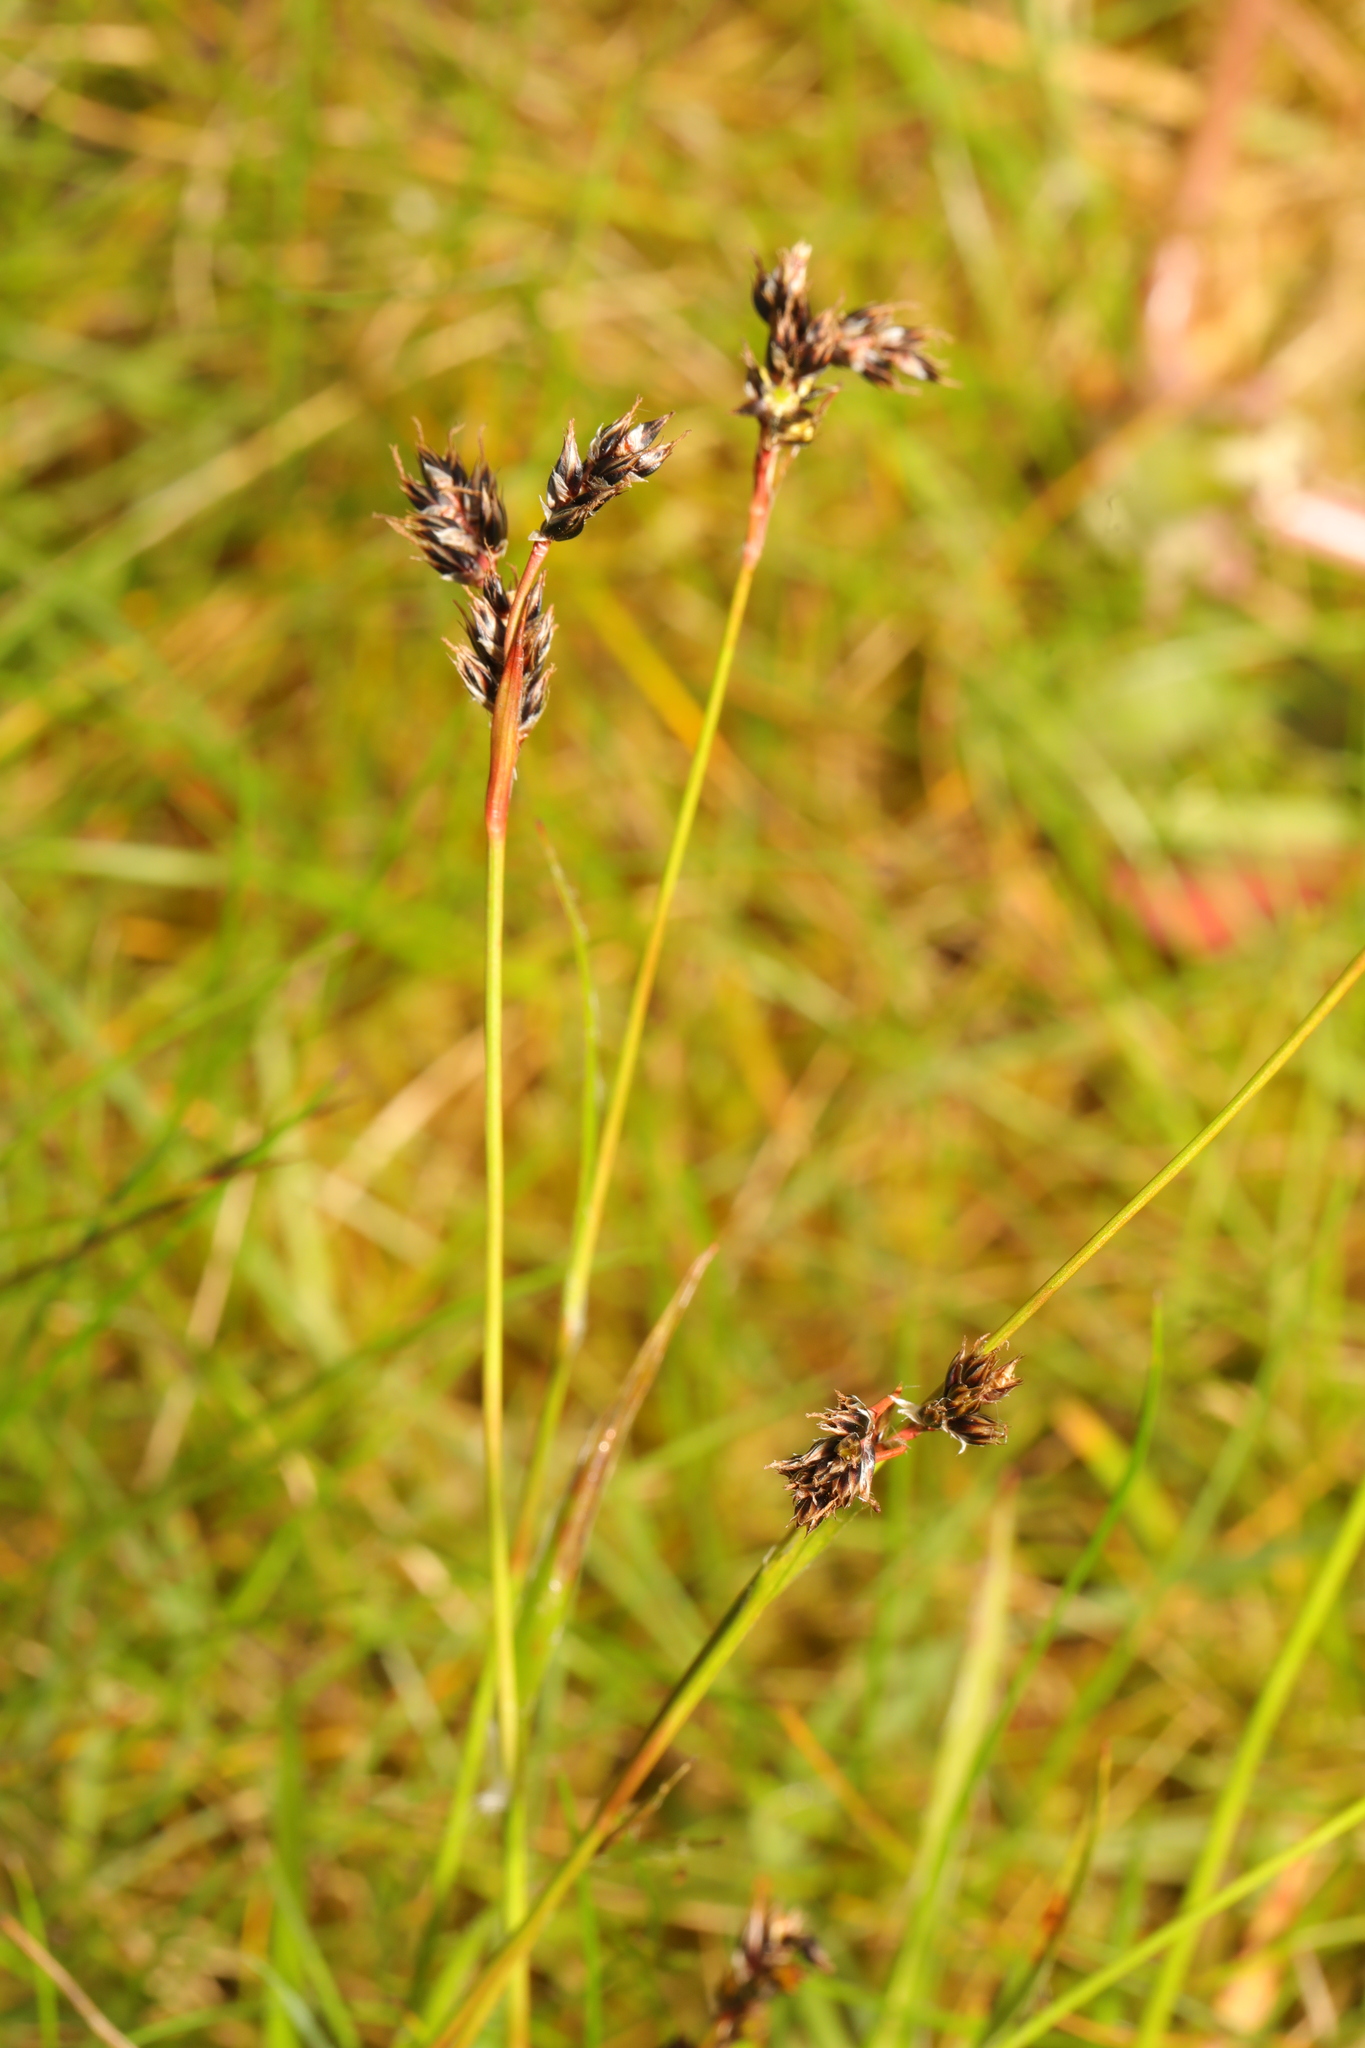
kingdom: Plantae
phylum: Tracheophyta
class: Liliopsida
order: Poales
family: Juncaceae
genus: Luzula
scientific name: Luzula campestris
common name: Field wood-rush
